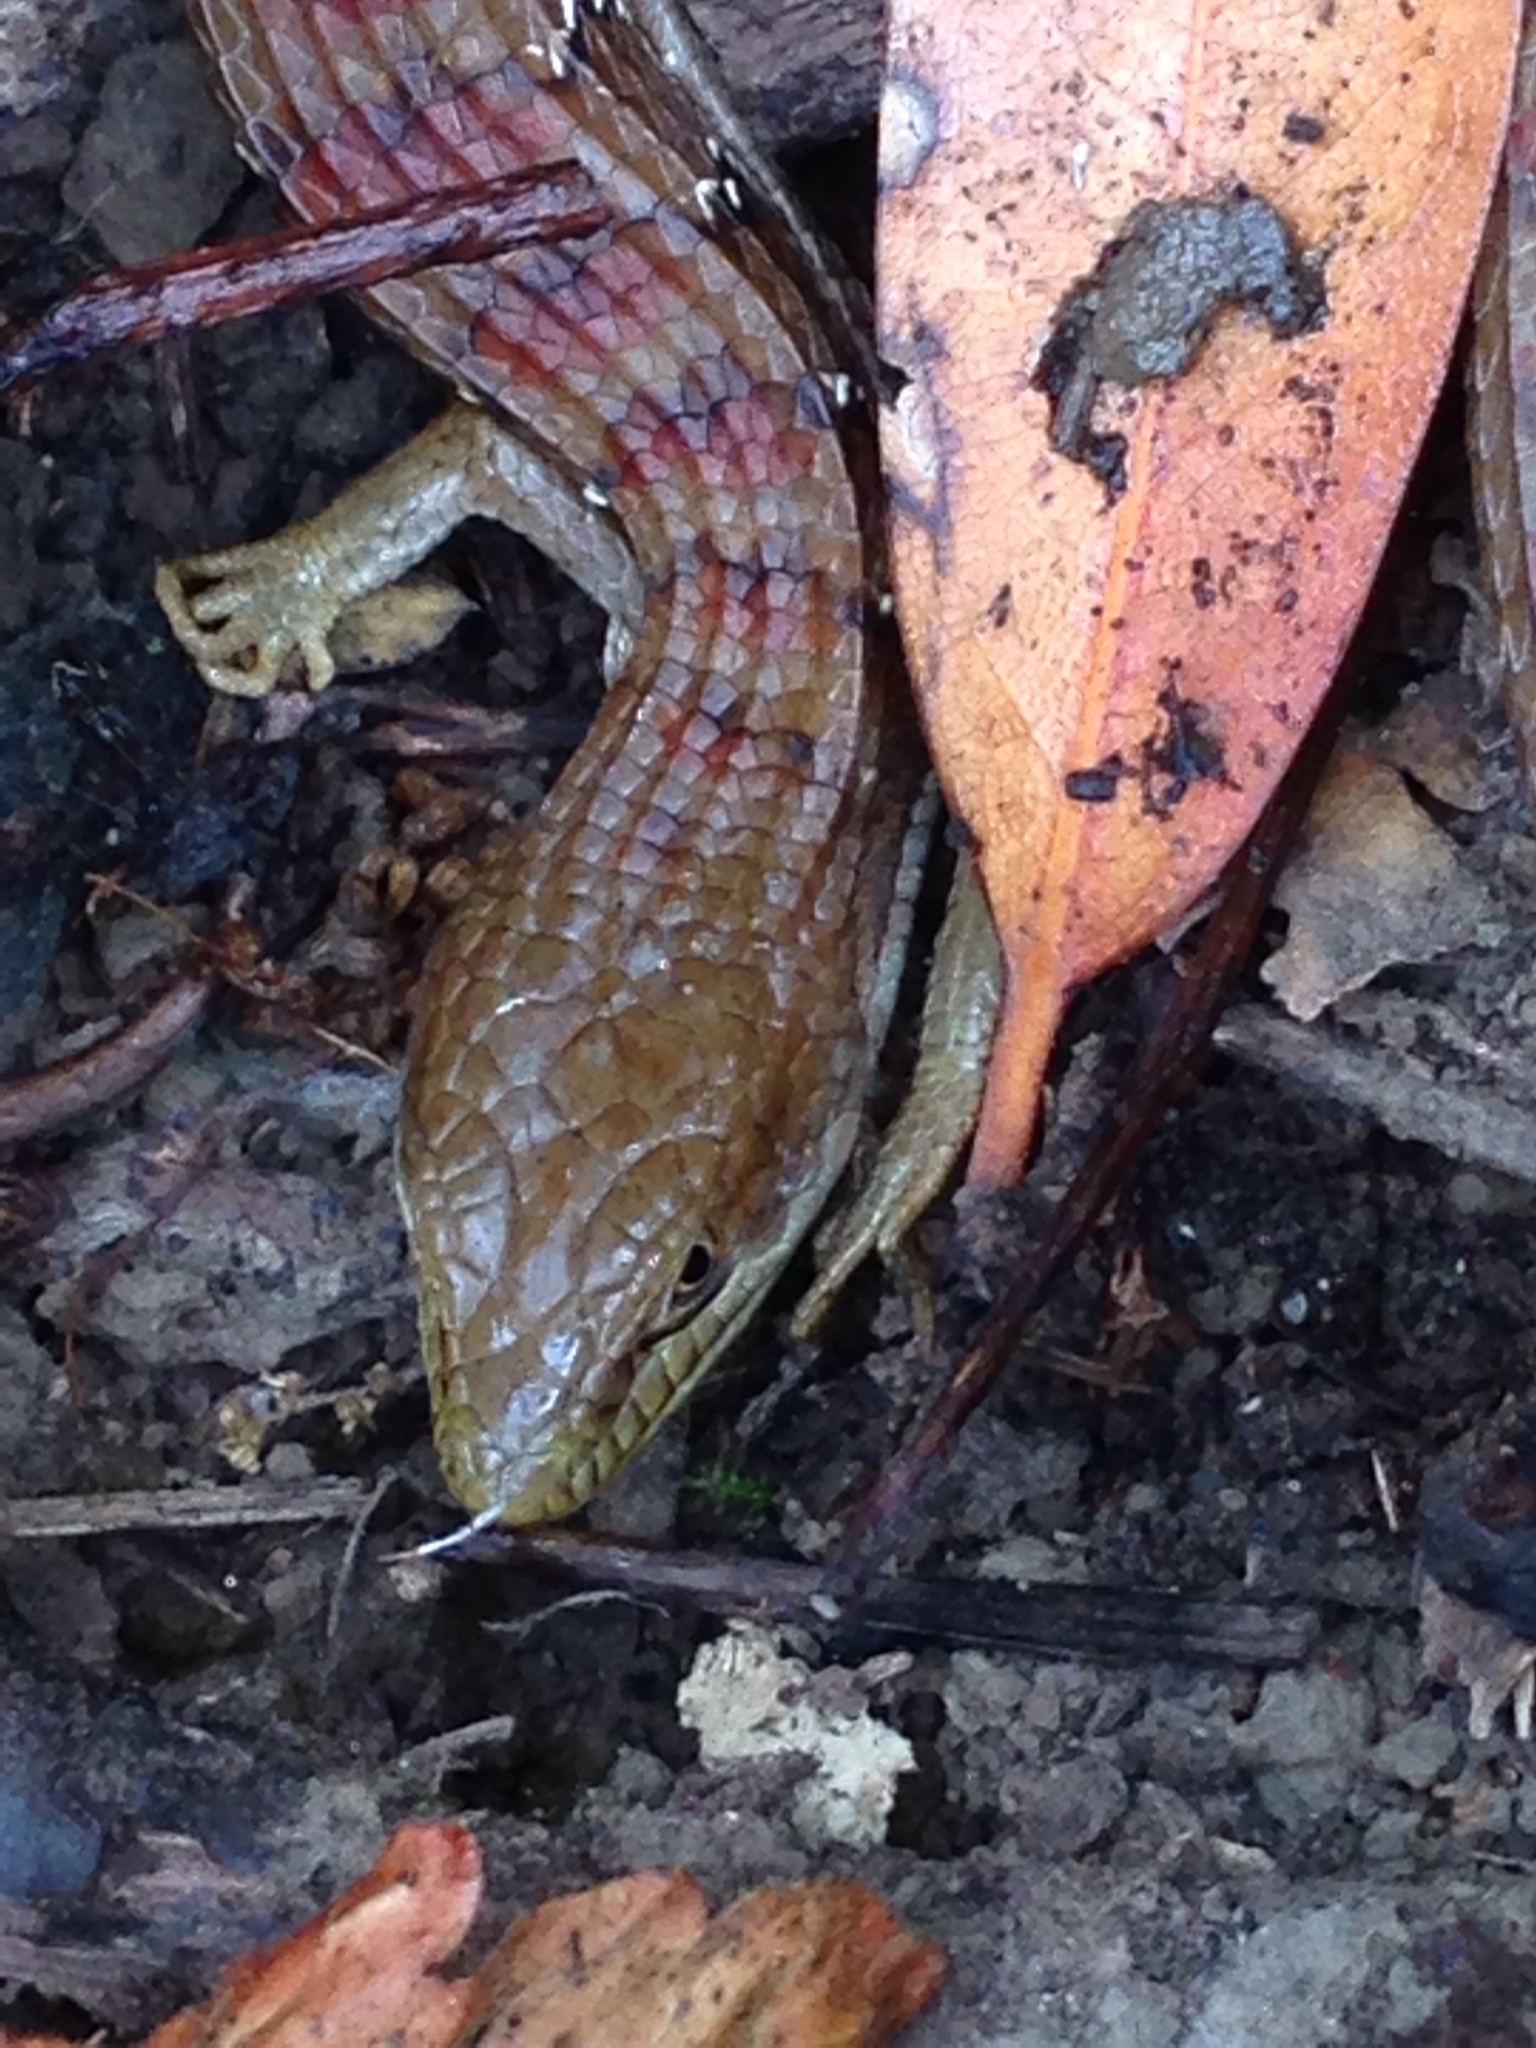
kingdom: Animalia
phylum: Chordata
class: Squamata
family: Anguidae
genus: Elgaria
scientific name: Elgaria multicarinata
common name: Southern alligator lizard
